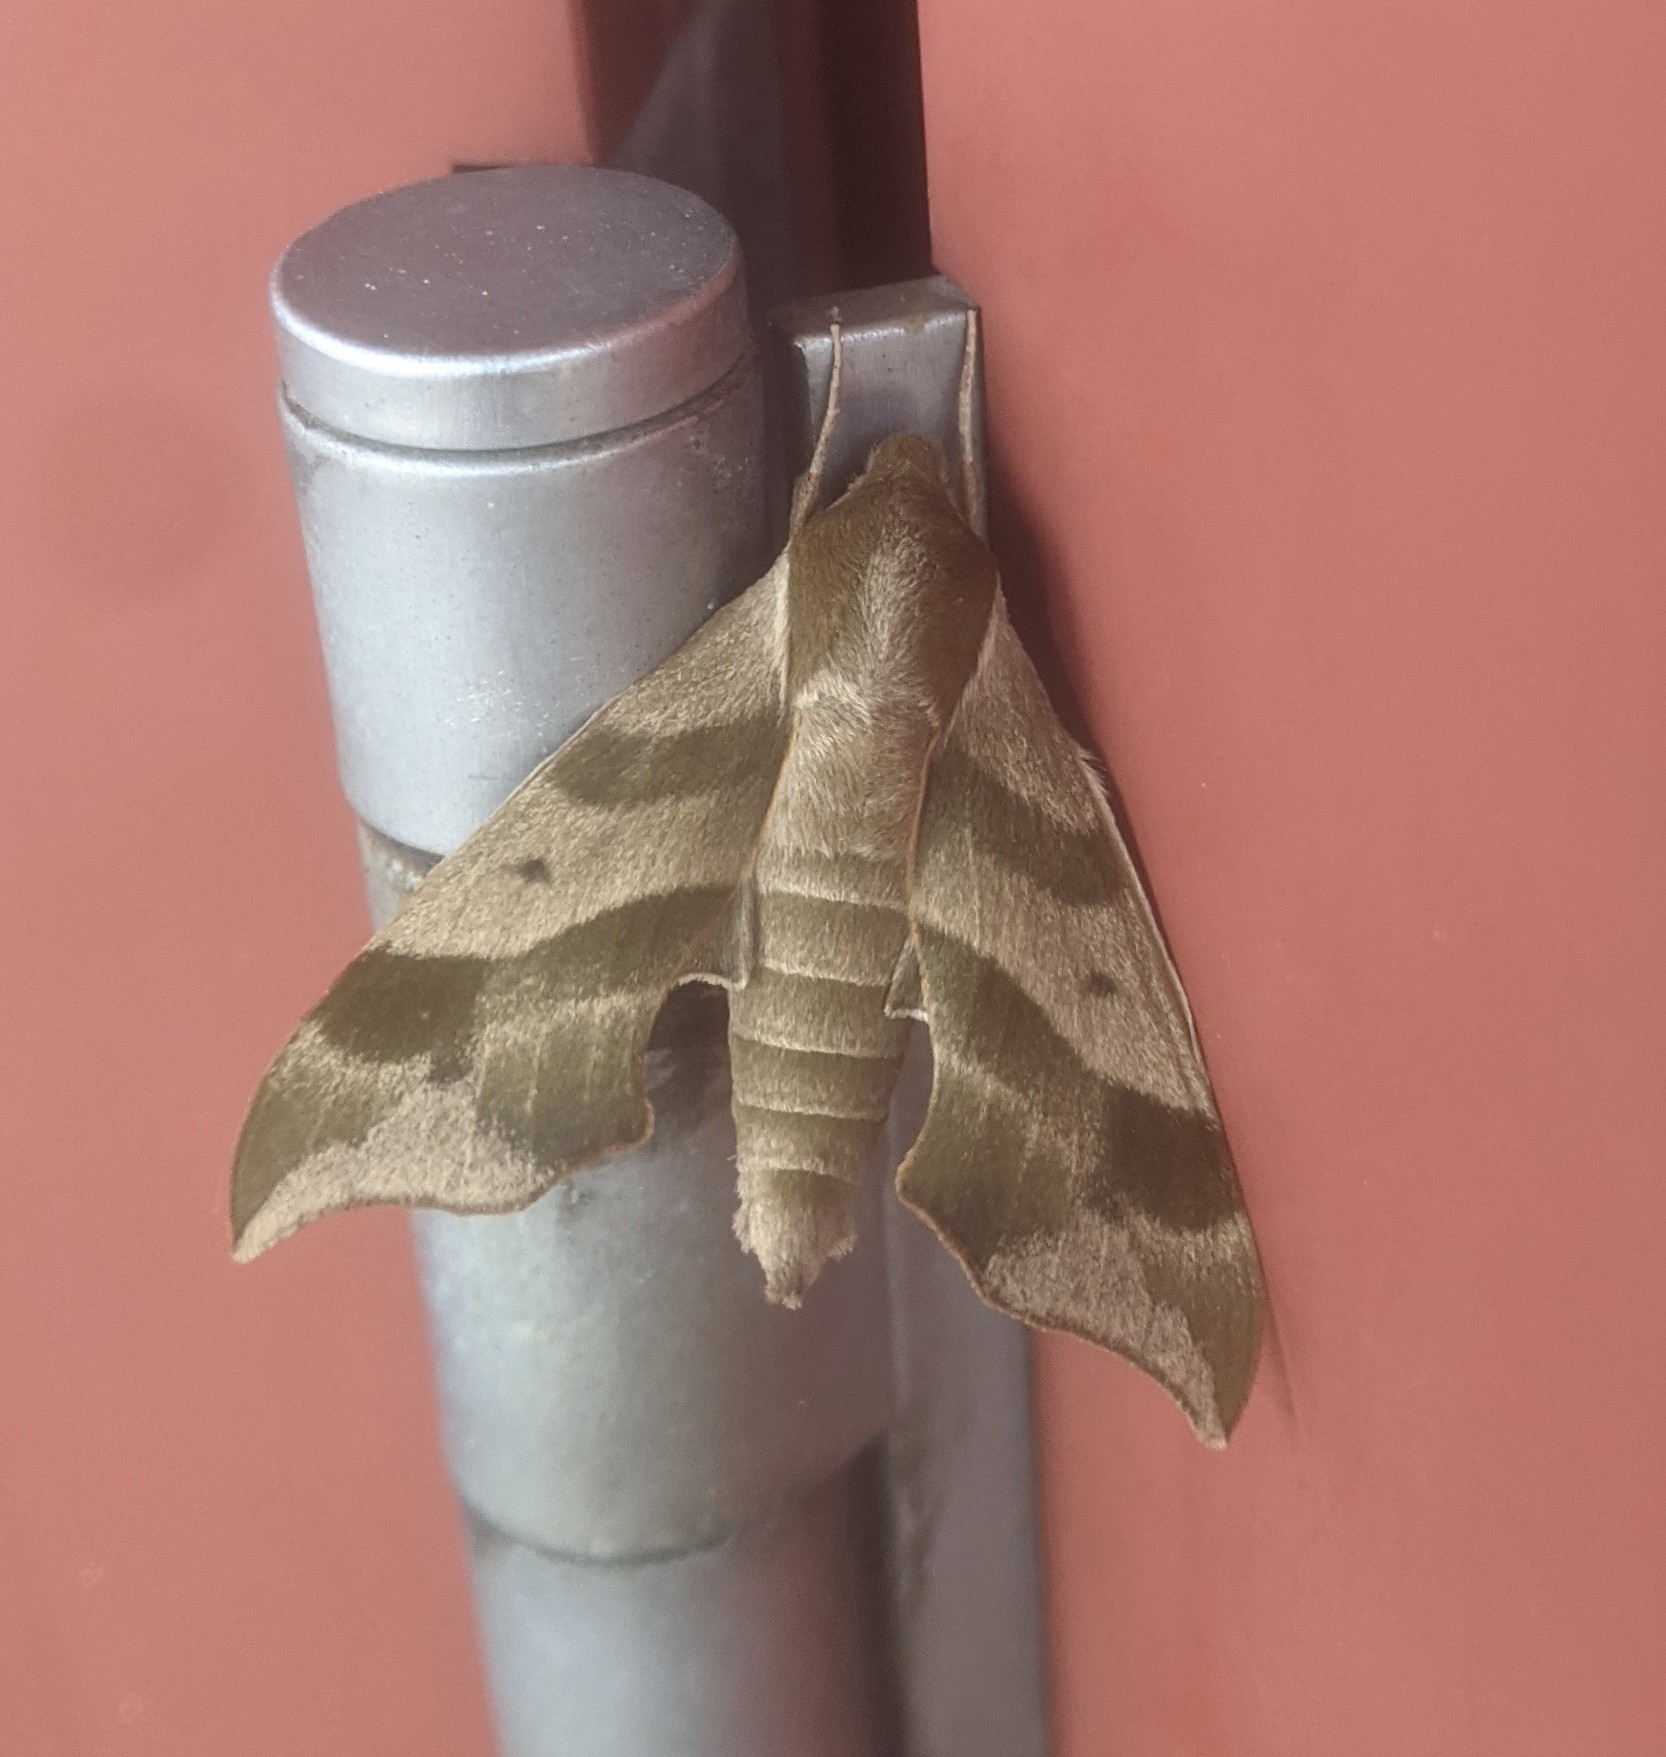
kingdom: Animalia
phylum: Arthropoda
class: Insecta
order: Lepidoptera
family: Sphingidae
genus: Darapsa
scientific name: Darapsa myron
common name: Hog sphinx
